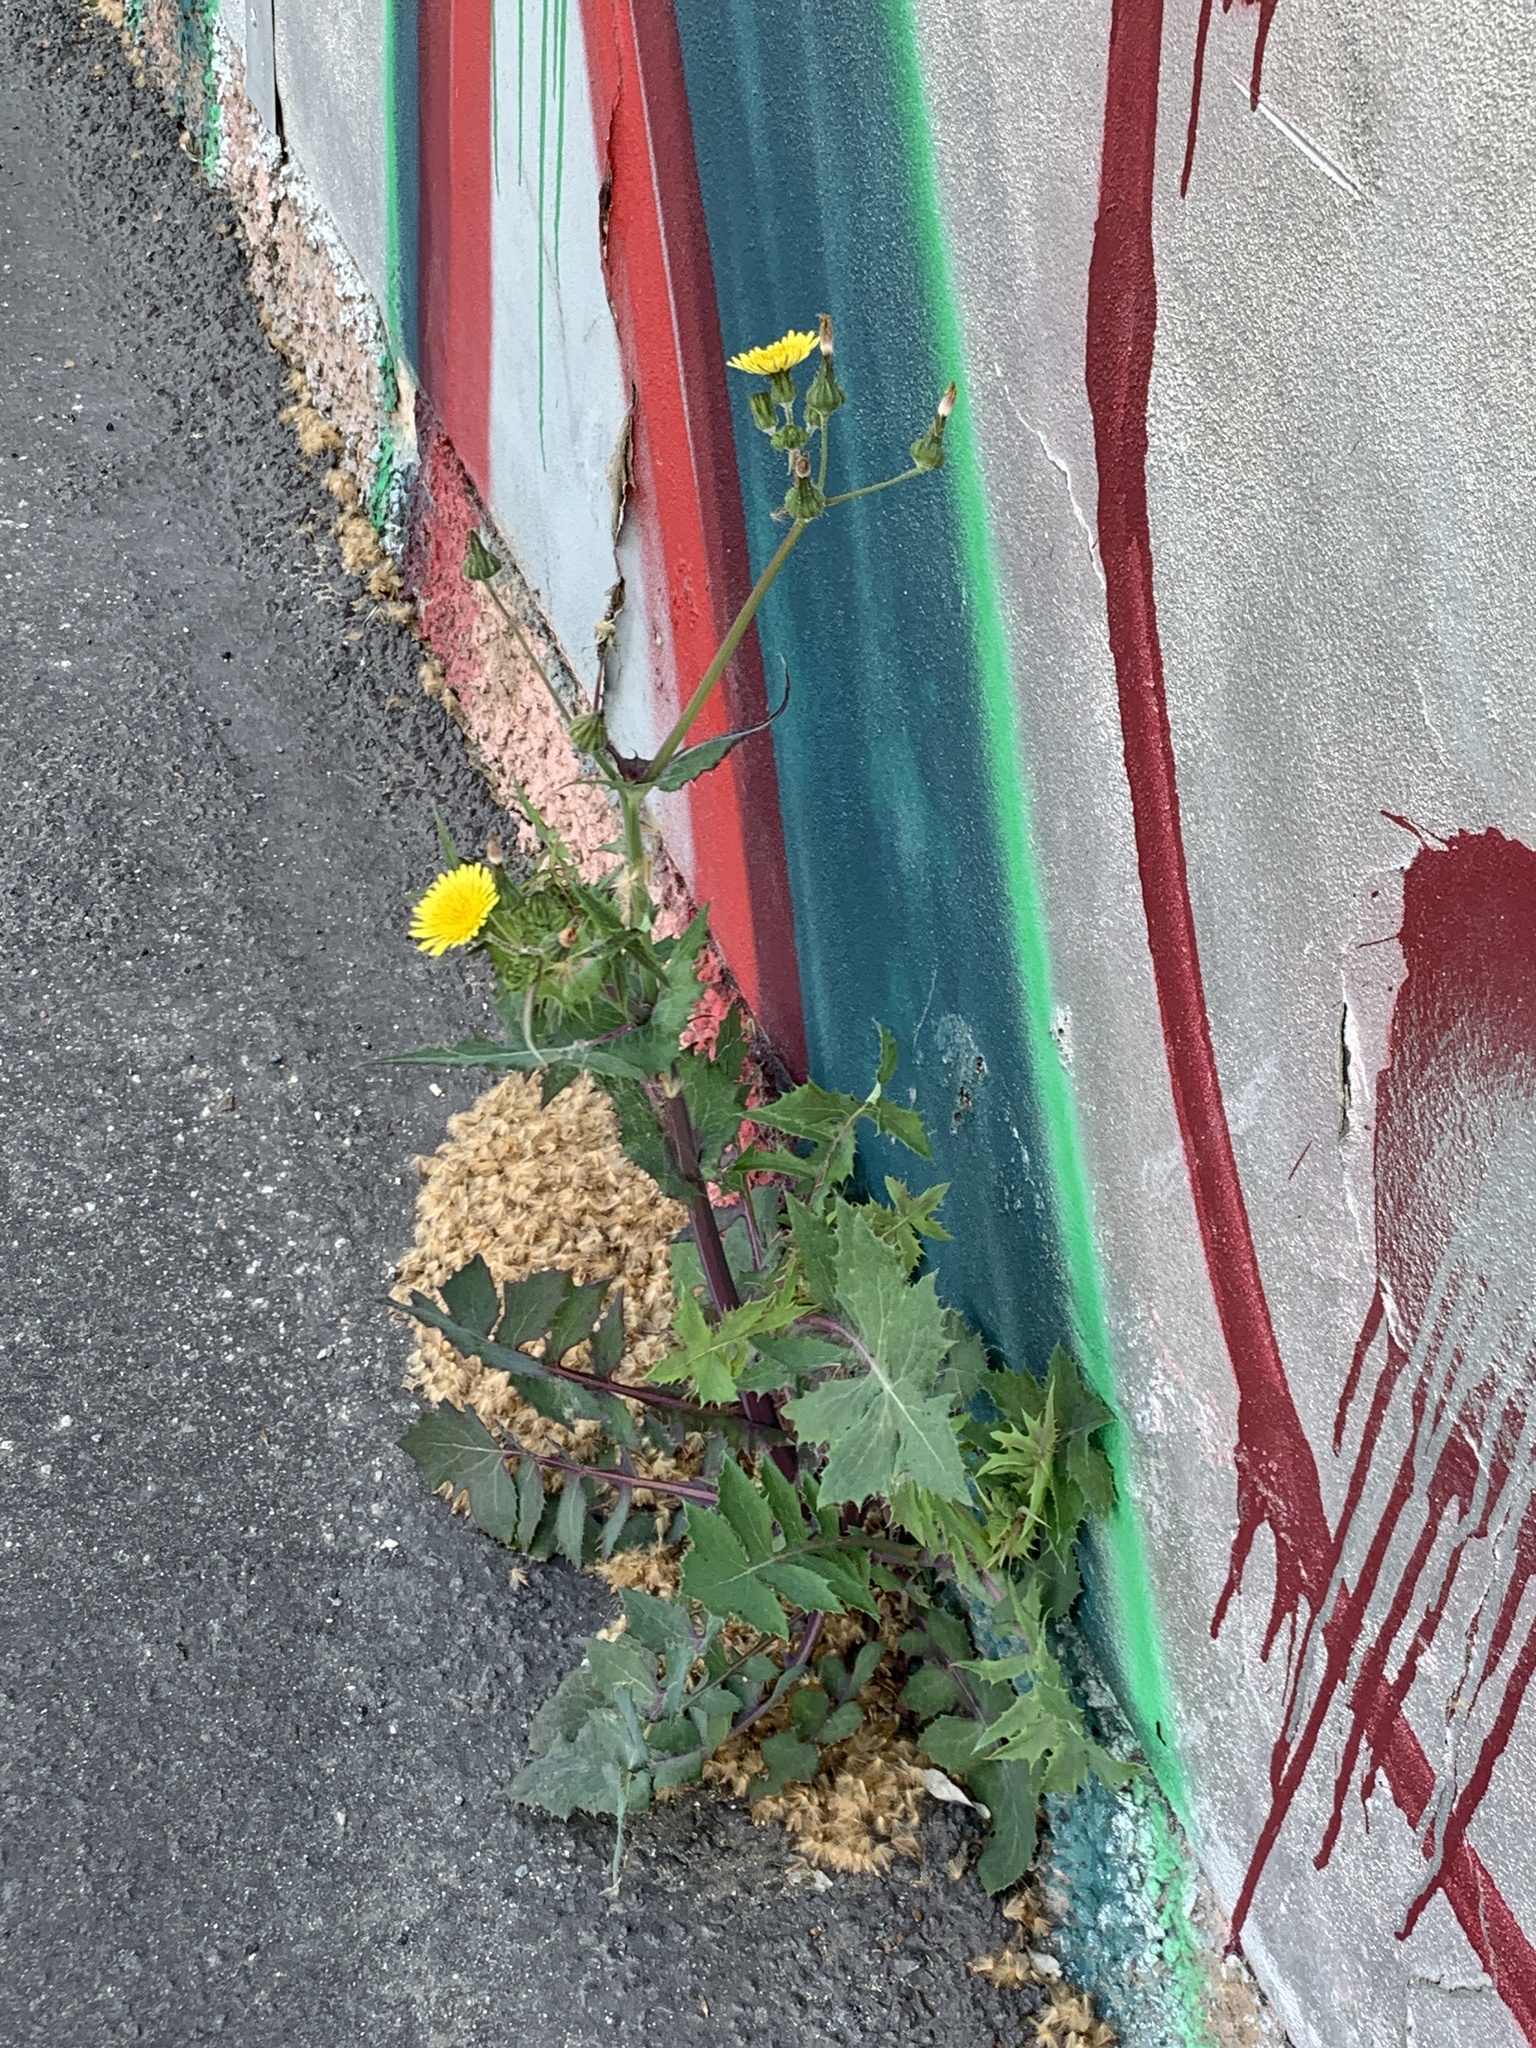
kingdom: Plantae
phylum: Tracheophyta
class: Magnoliopsida
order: Asterales
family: Asteraceae
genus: Sonchus
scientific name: Sonchus oleraceus
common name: Common sowthistle
